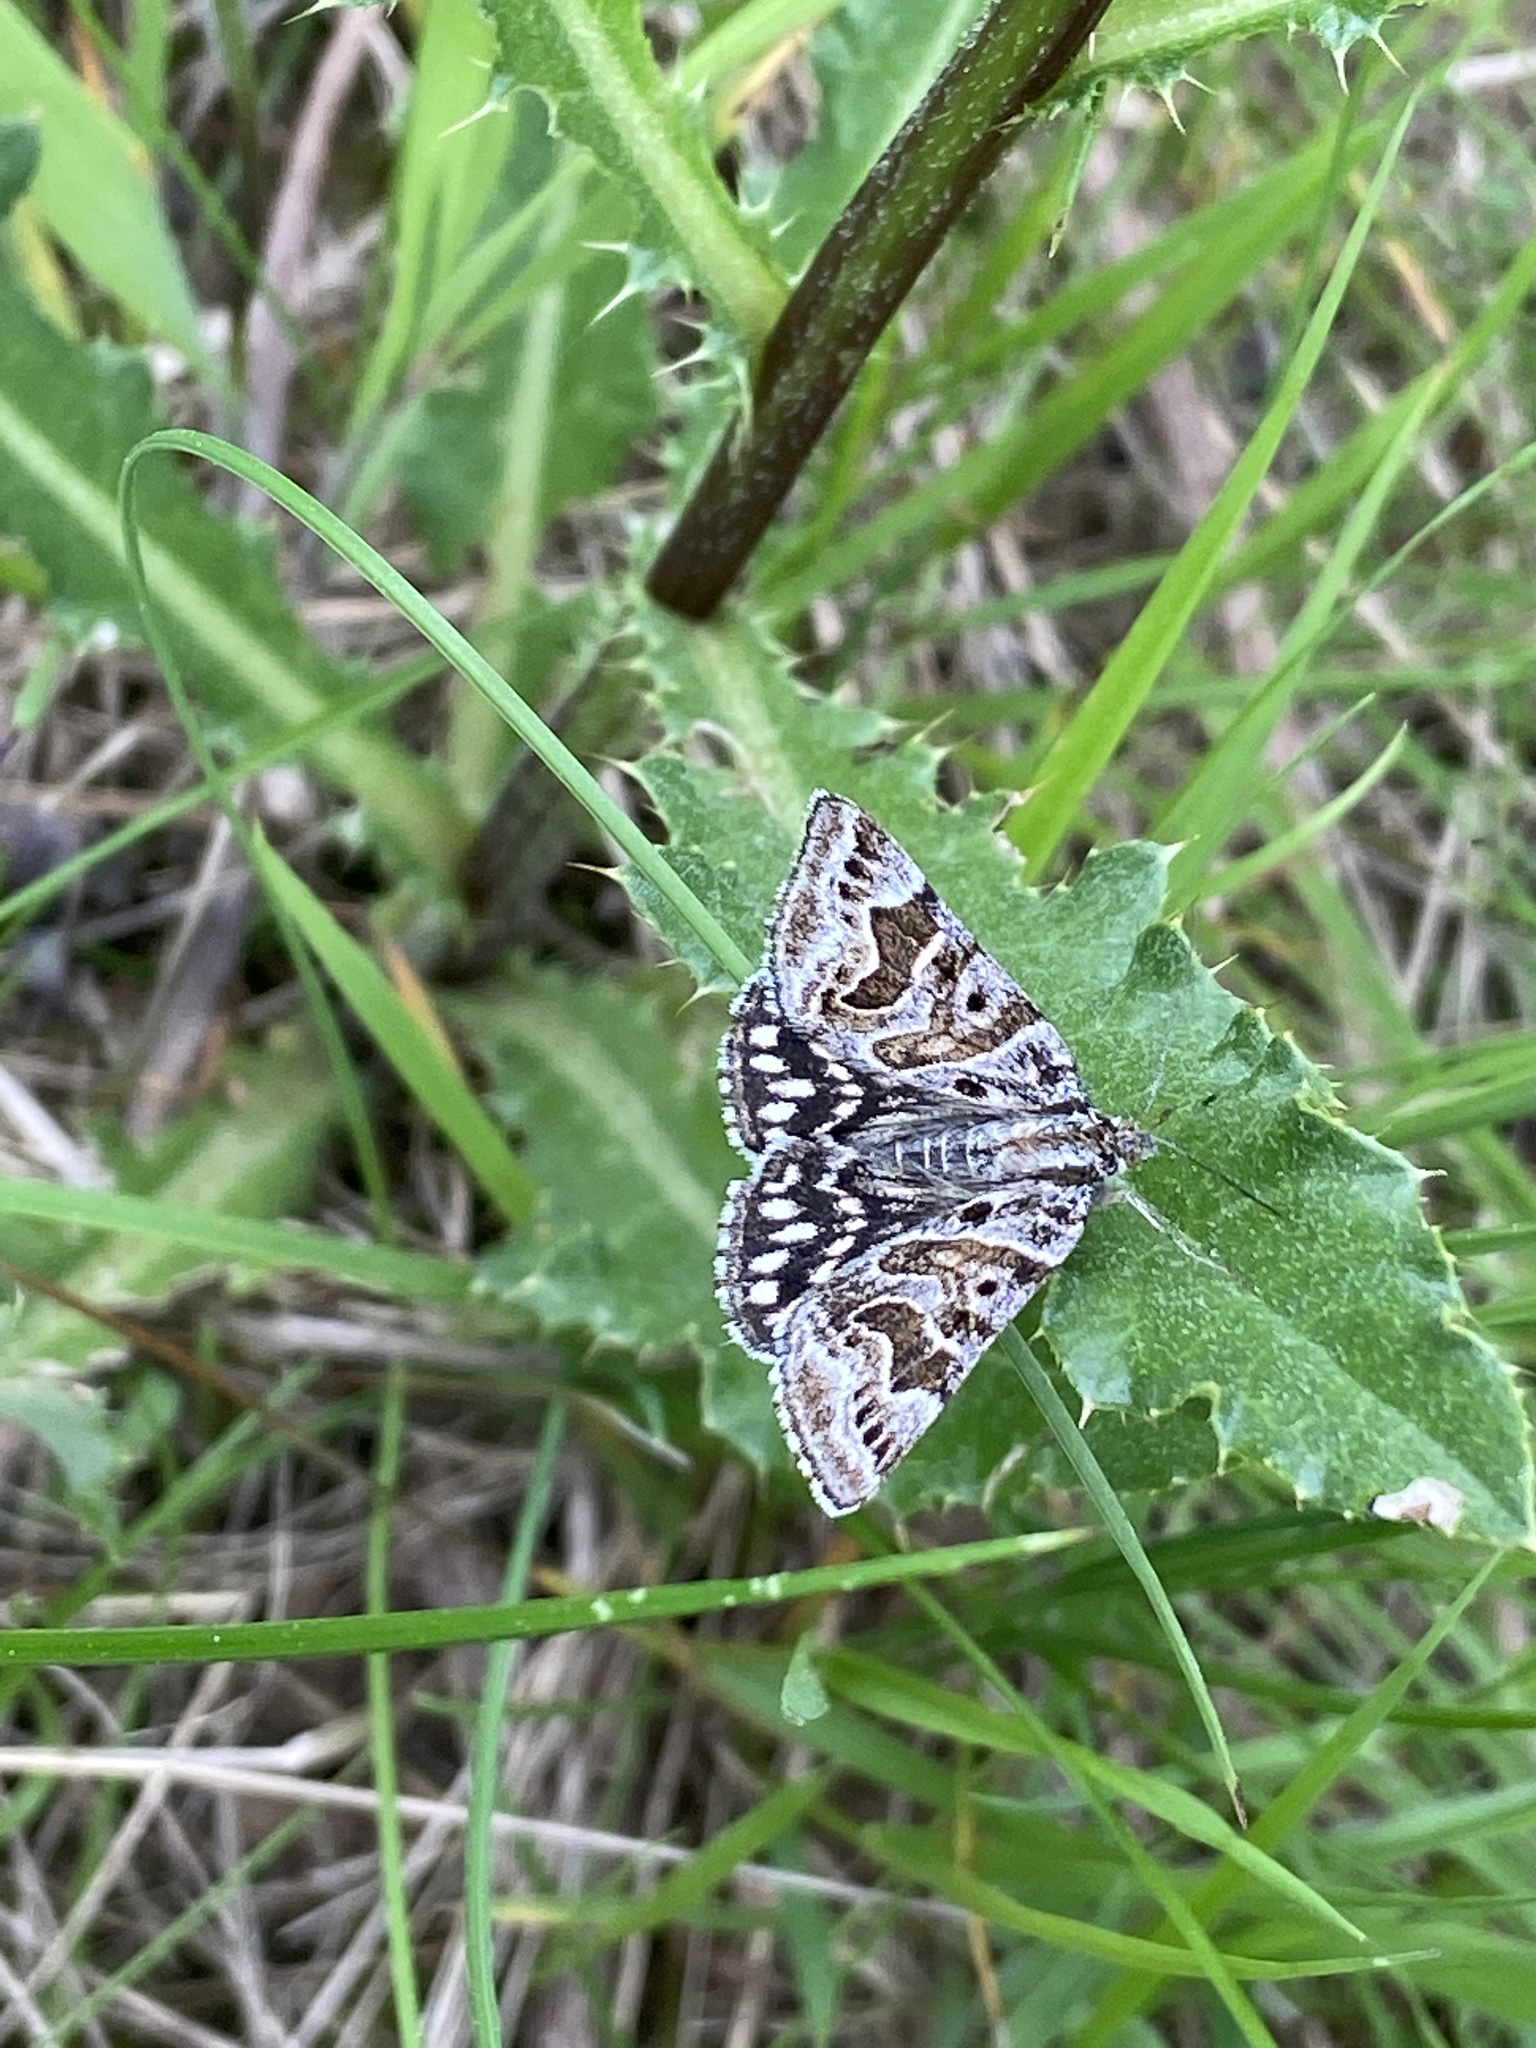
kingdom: Animalia
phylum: Arthropoda
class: Insecta
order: Lepidoptera
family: Erebidae
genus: Callistege
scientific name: Callistege mi
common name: Mother shipton
